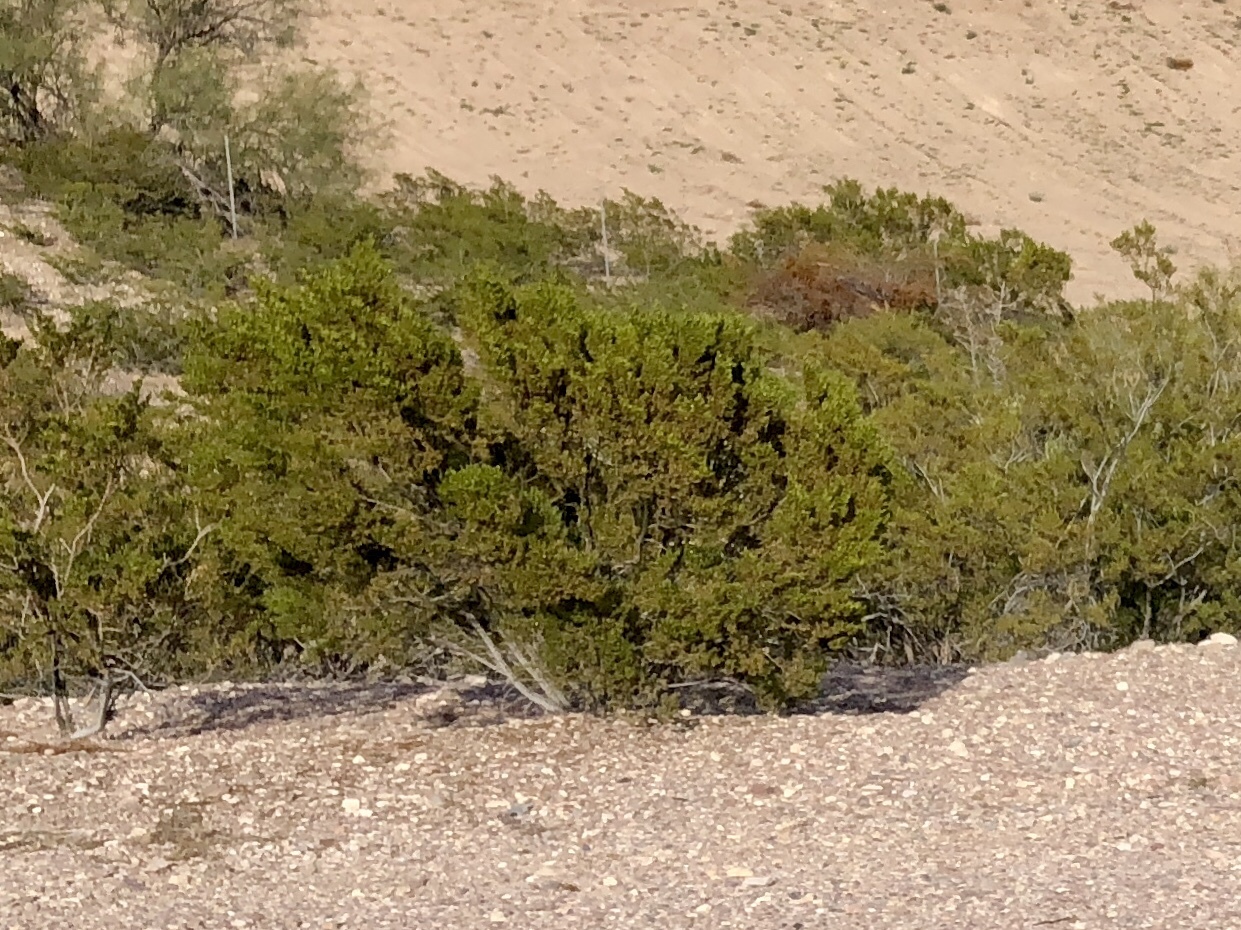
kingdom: Plantae
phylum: Tracheophyta
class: Magnoliopsida
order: Zygophyllales
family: Zygophyllaceae
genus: Larrea
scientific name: Larrea tridentata
